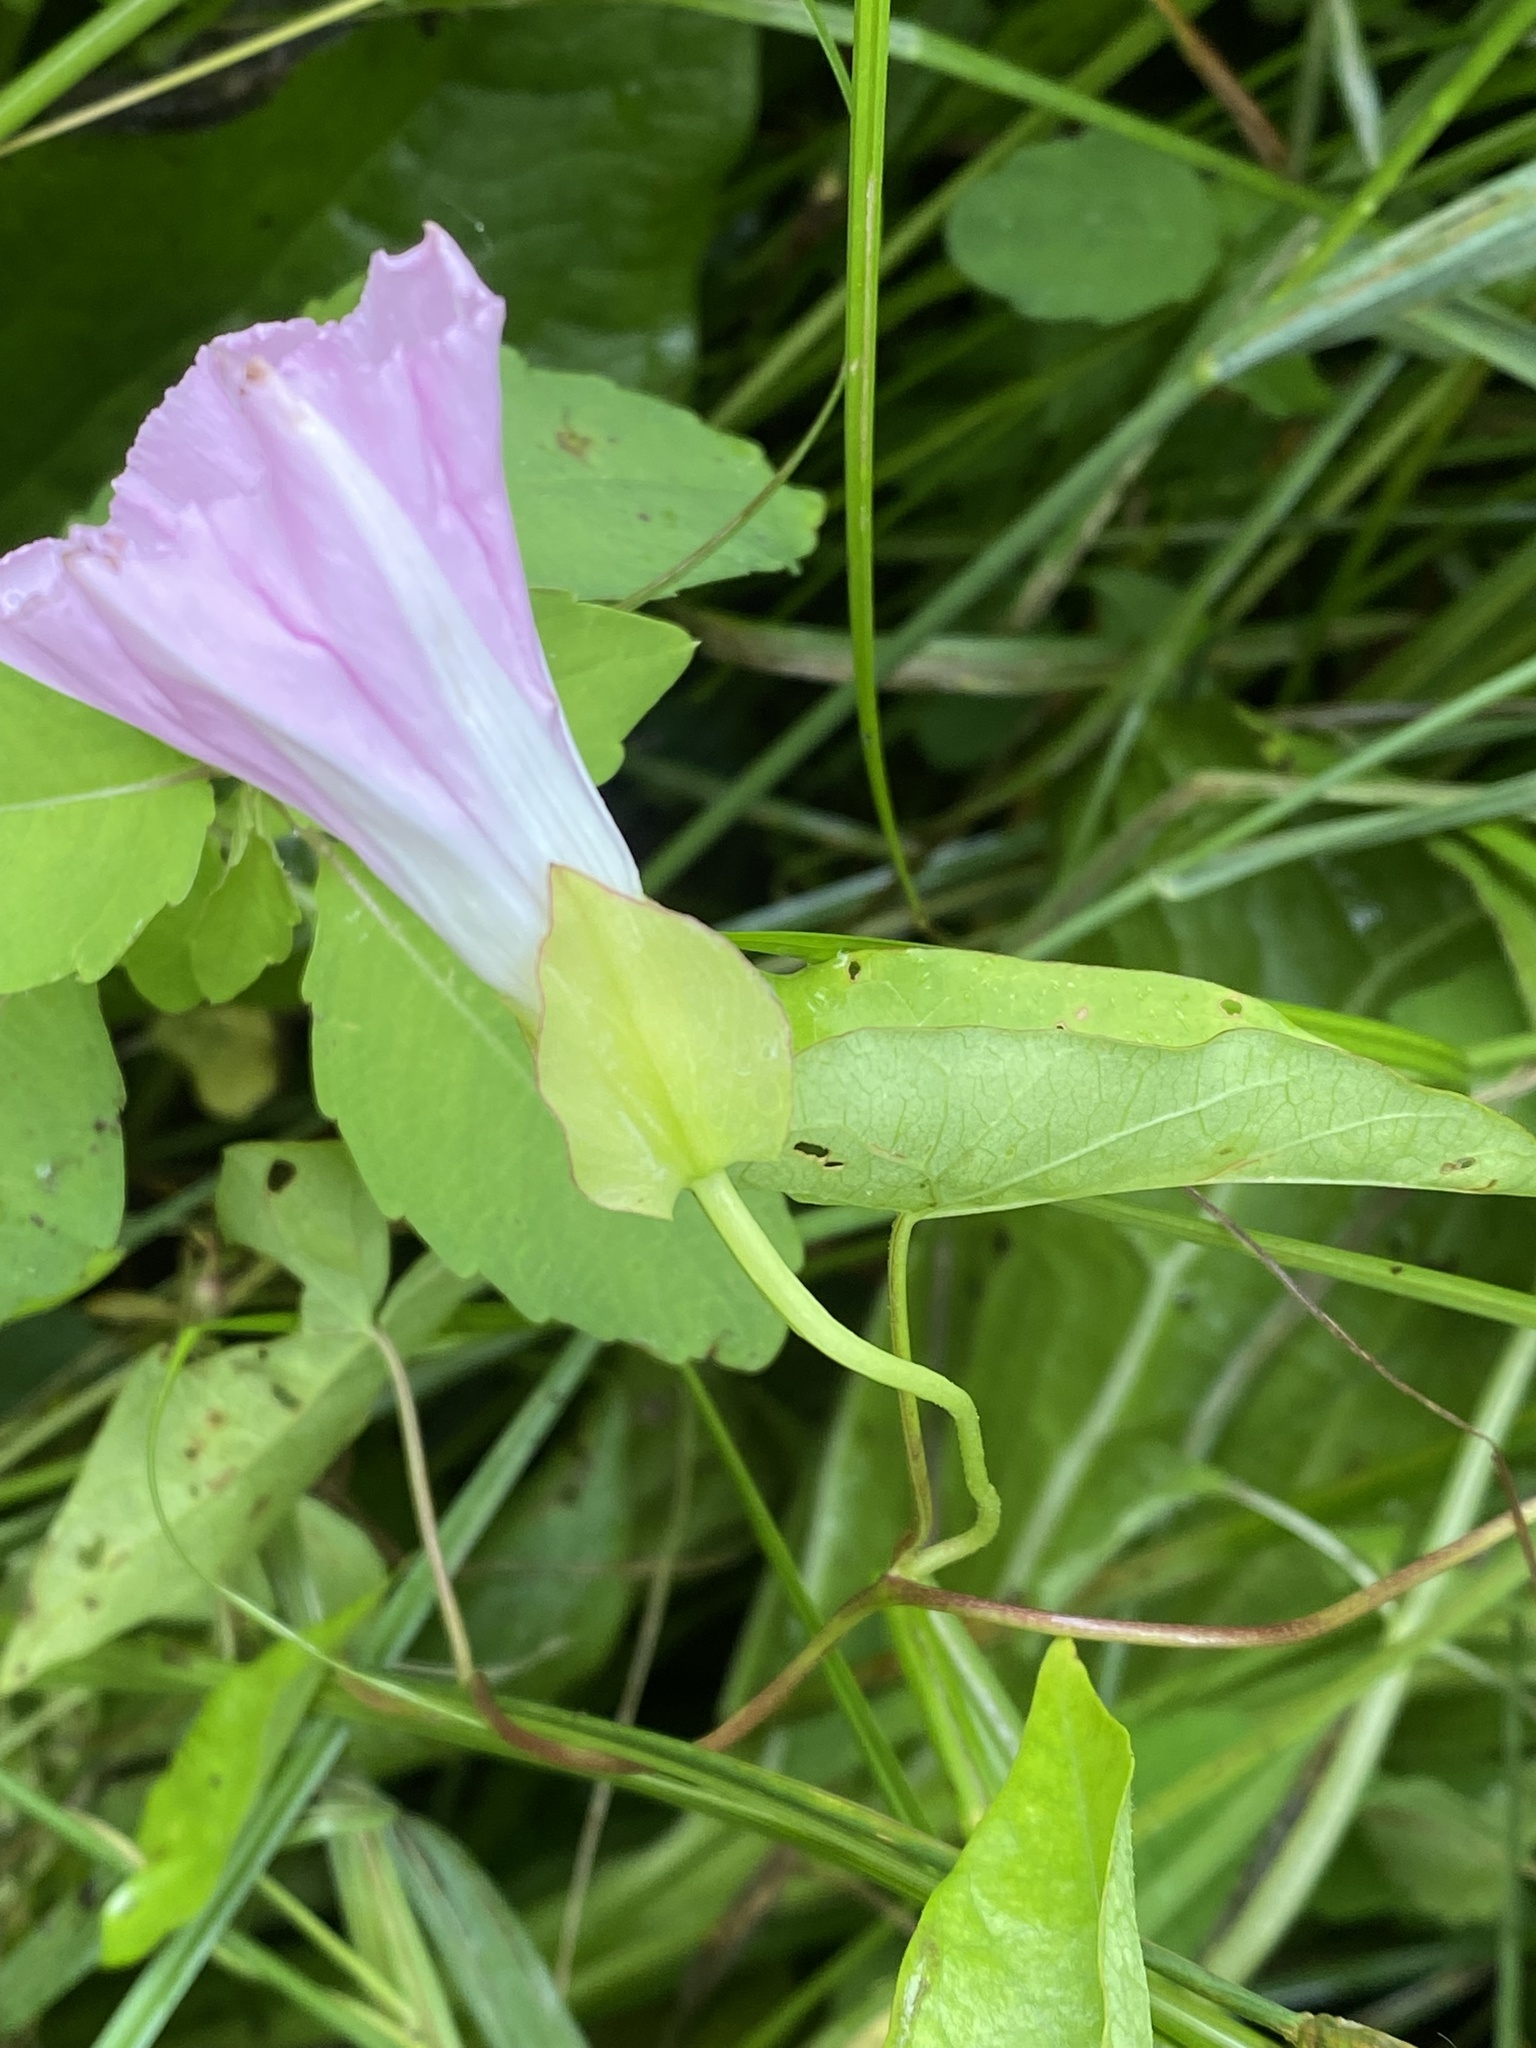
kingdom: Plantae
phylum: Tracheophyta
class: Magnoliopsida
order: Solanales
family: Convolvulaceae
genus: Calystegia
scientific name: Calystegia sepium
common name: Hedge bindweed
